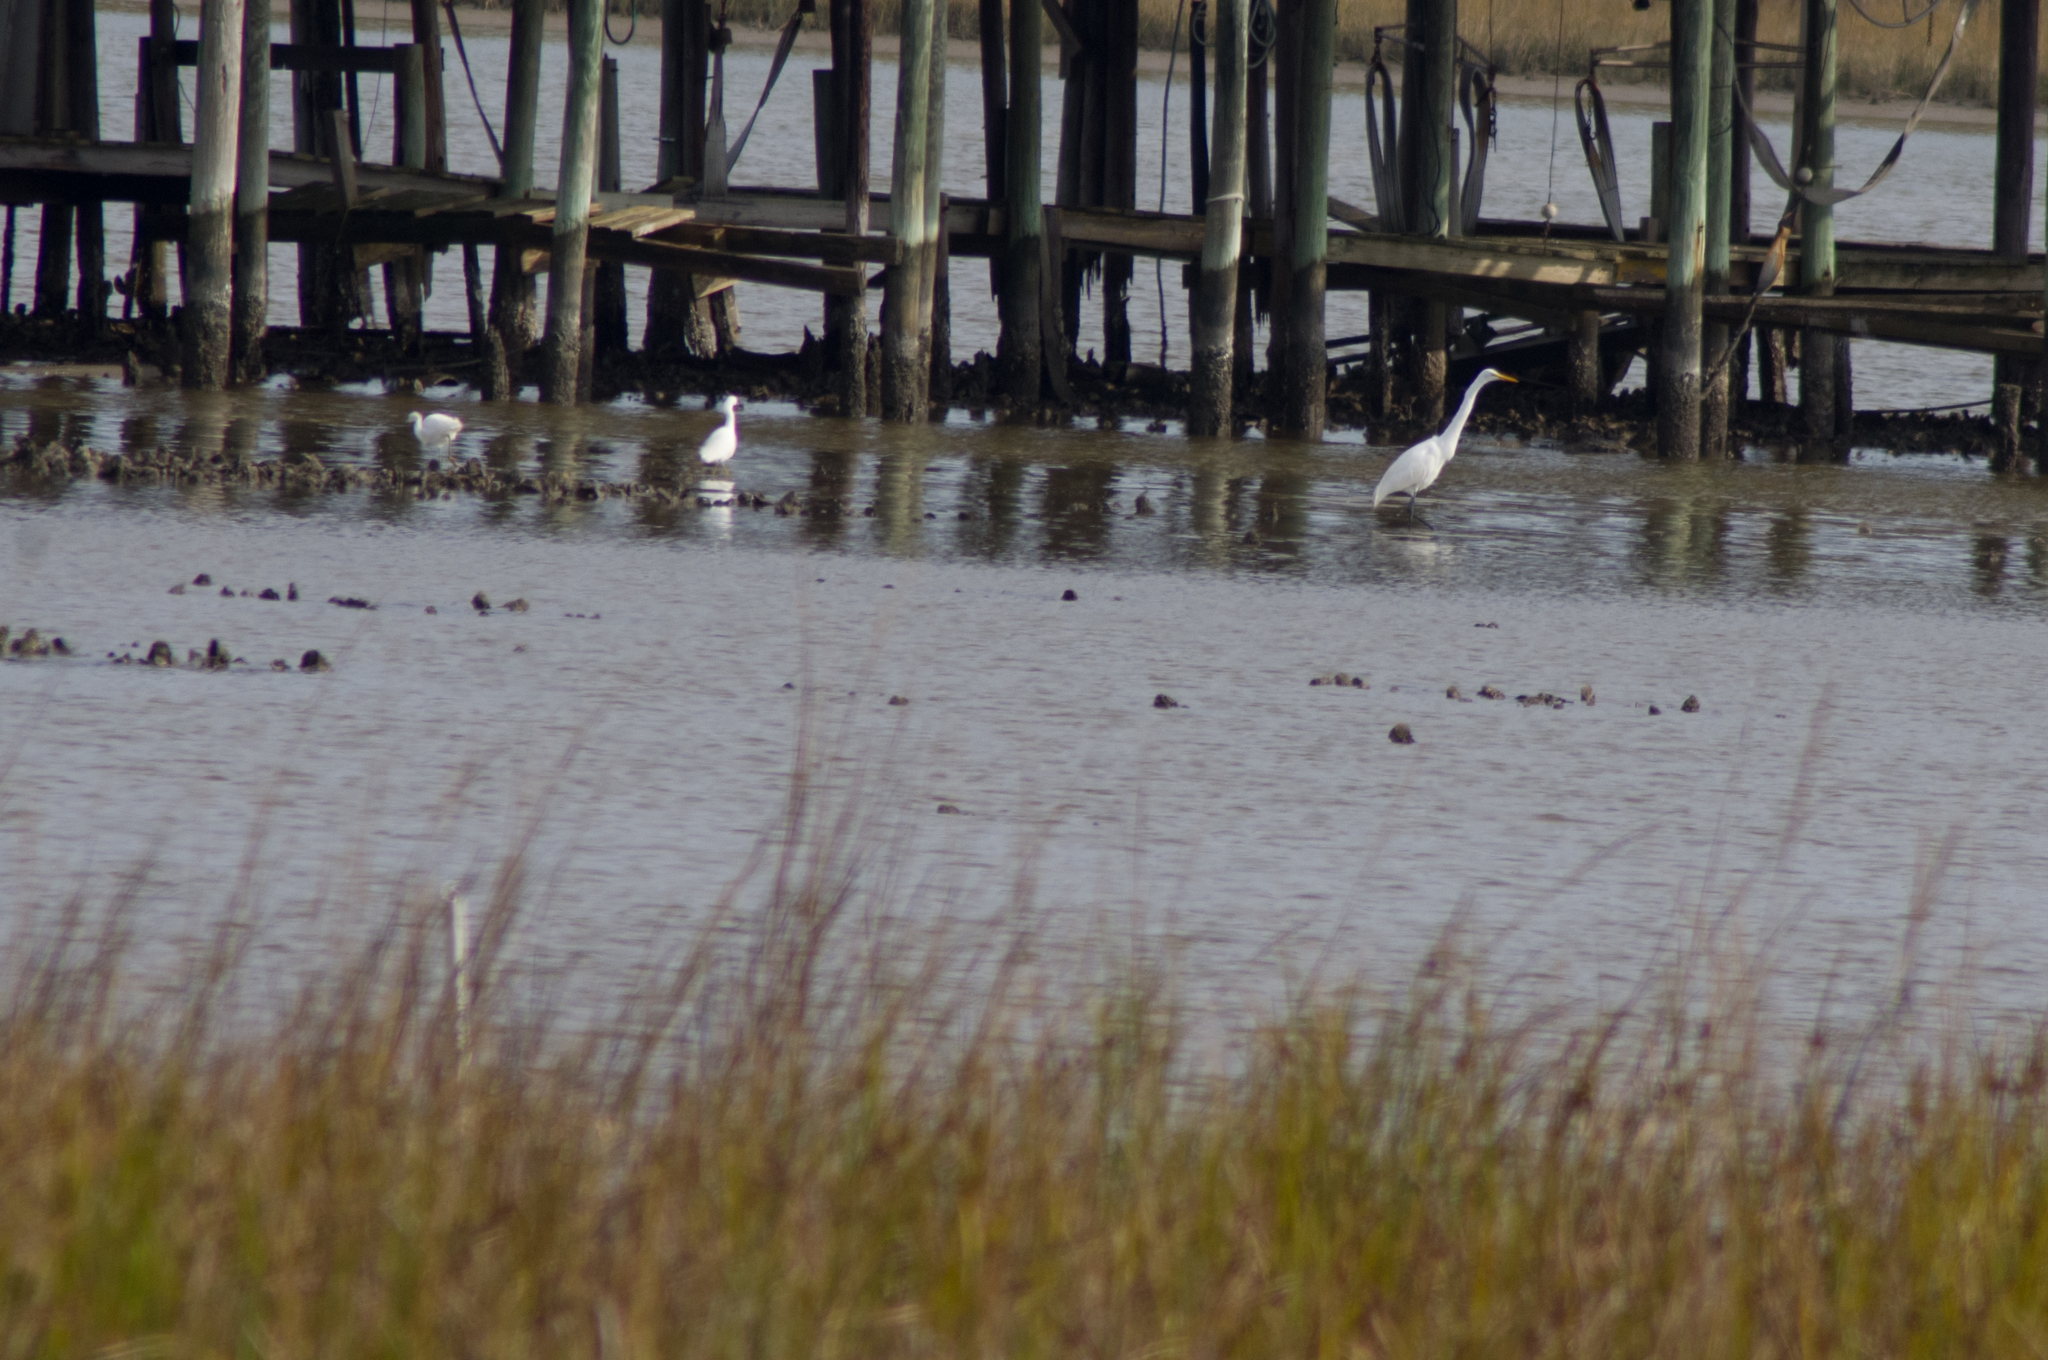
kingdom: Animalia
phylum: Chordata
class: Aves
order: Pelecaniformes
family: Ardeidae
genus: Ardea
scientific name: Ardea alba
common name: Great egret
